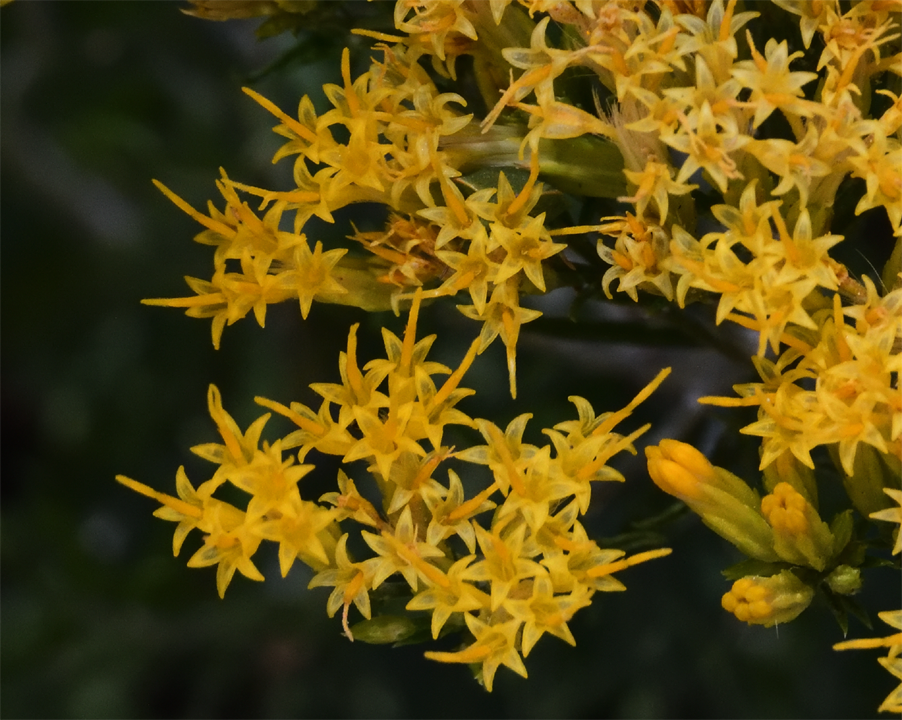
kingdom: Plantae
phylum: Tracheophyta
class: Magnoliopsida
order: Asterales
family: Asteraceae
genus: Ericameria
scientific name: Ericameria nauseosa
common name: Rubber rabbitbrush
